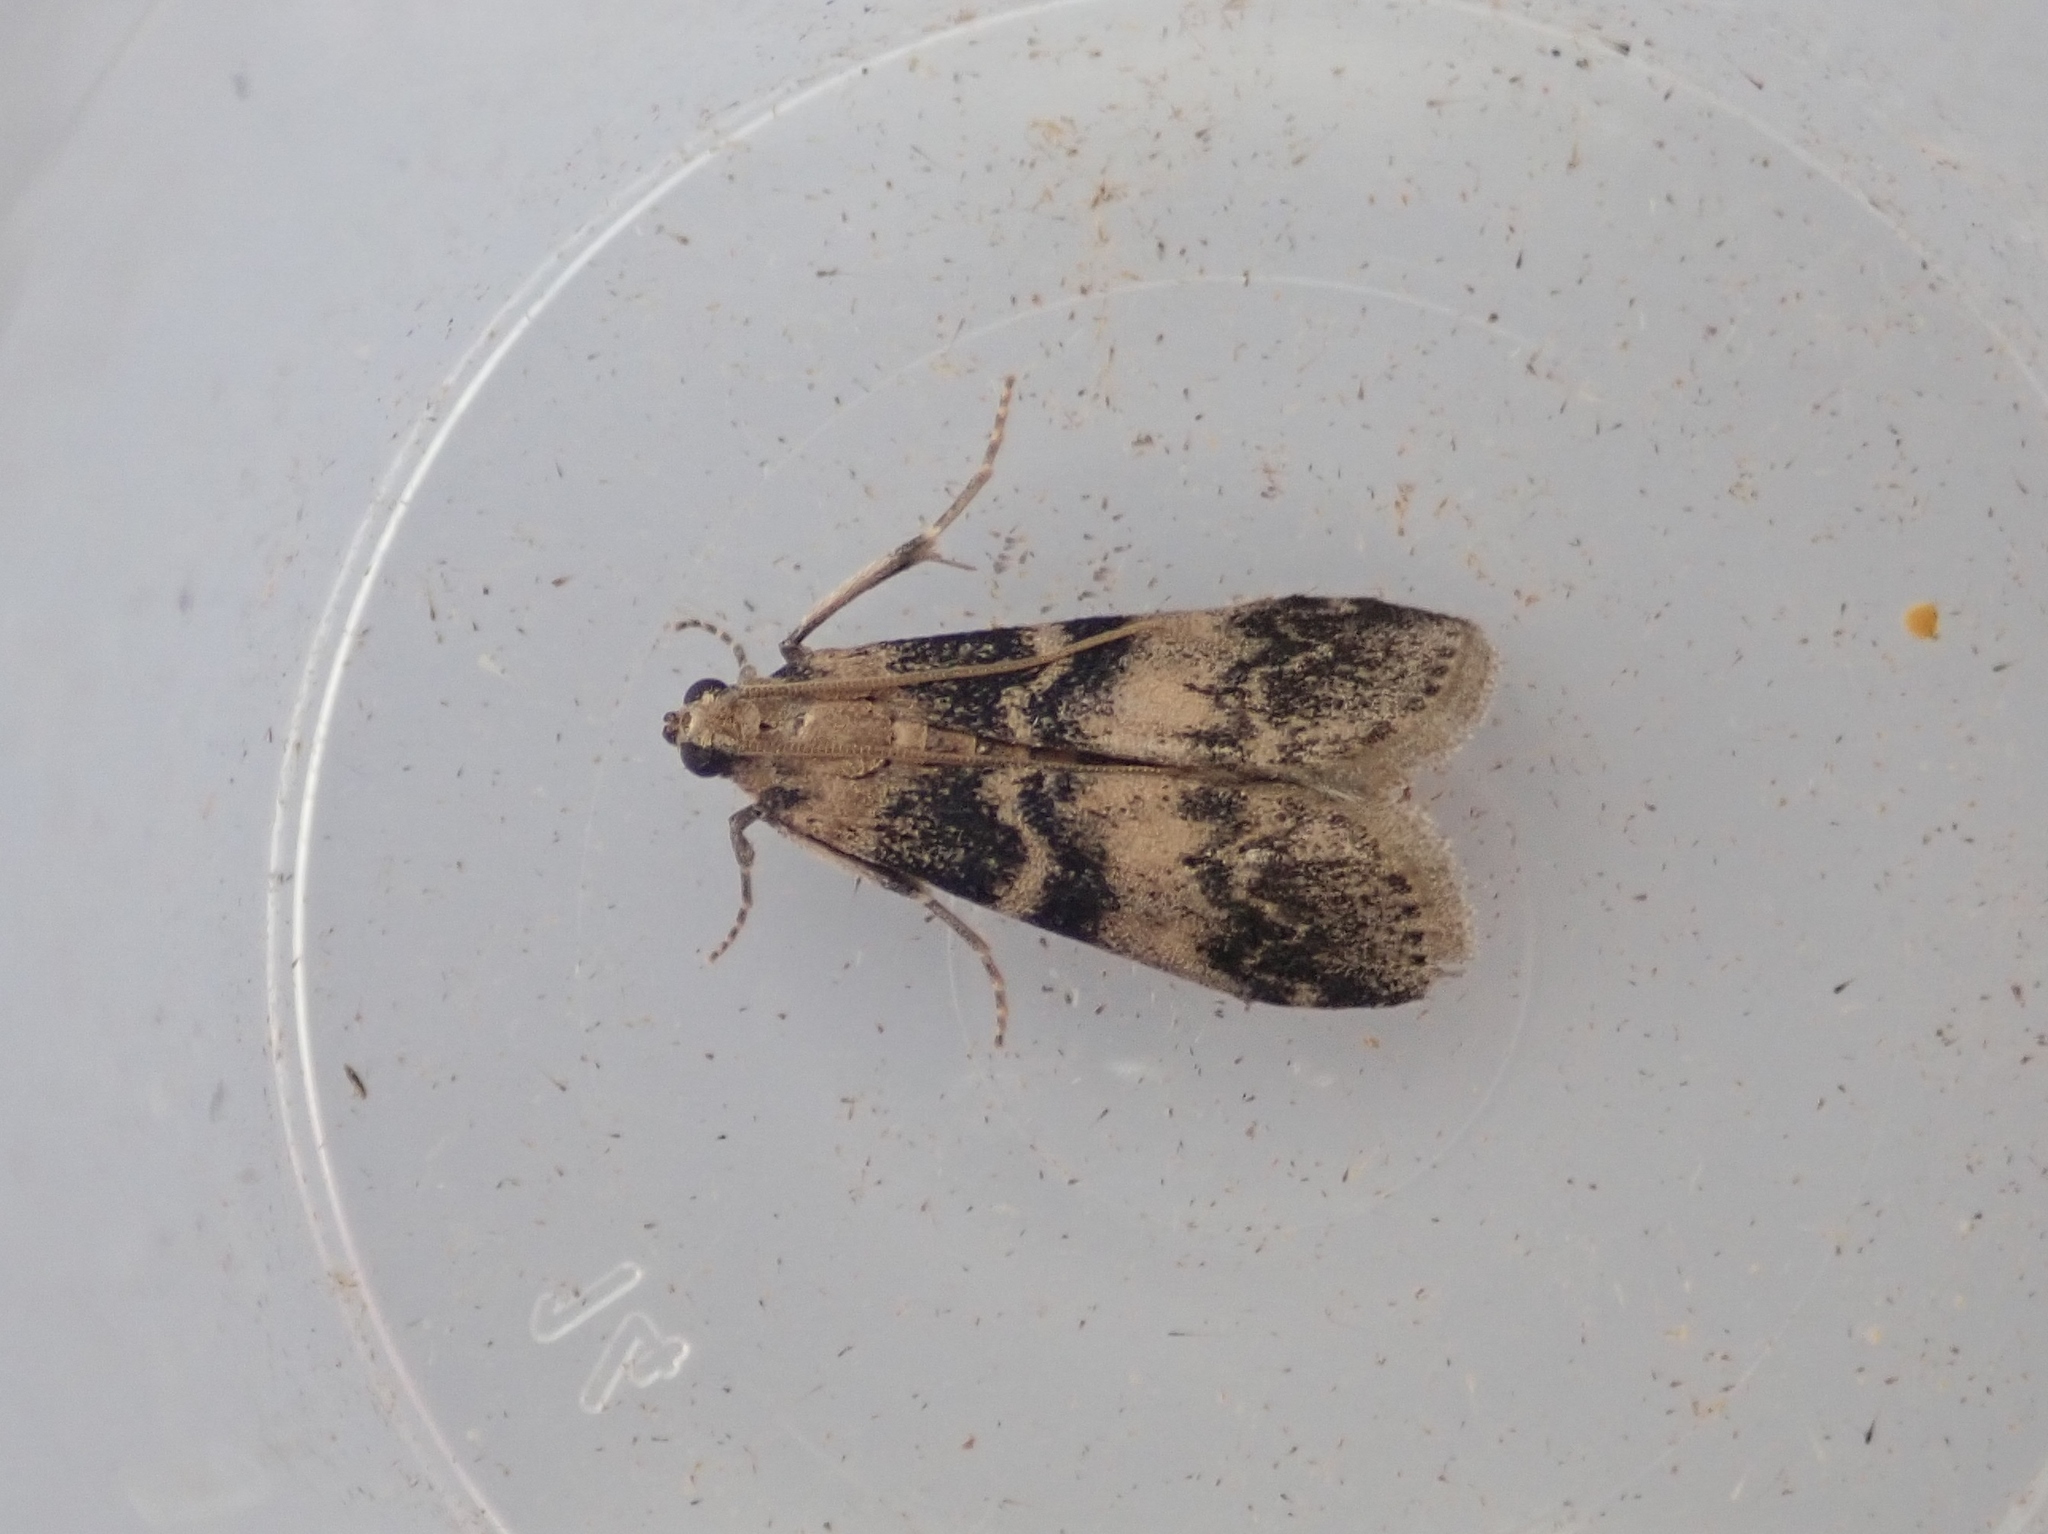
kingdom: Animalia
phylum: Arthropoda
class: Insecta
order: Lepidoptera
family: Pyralidae
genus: Euzophera
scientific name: Euzophera pinguis
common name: Ash-bark knot-horn
